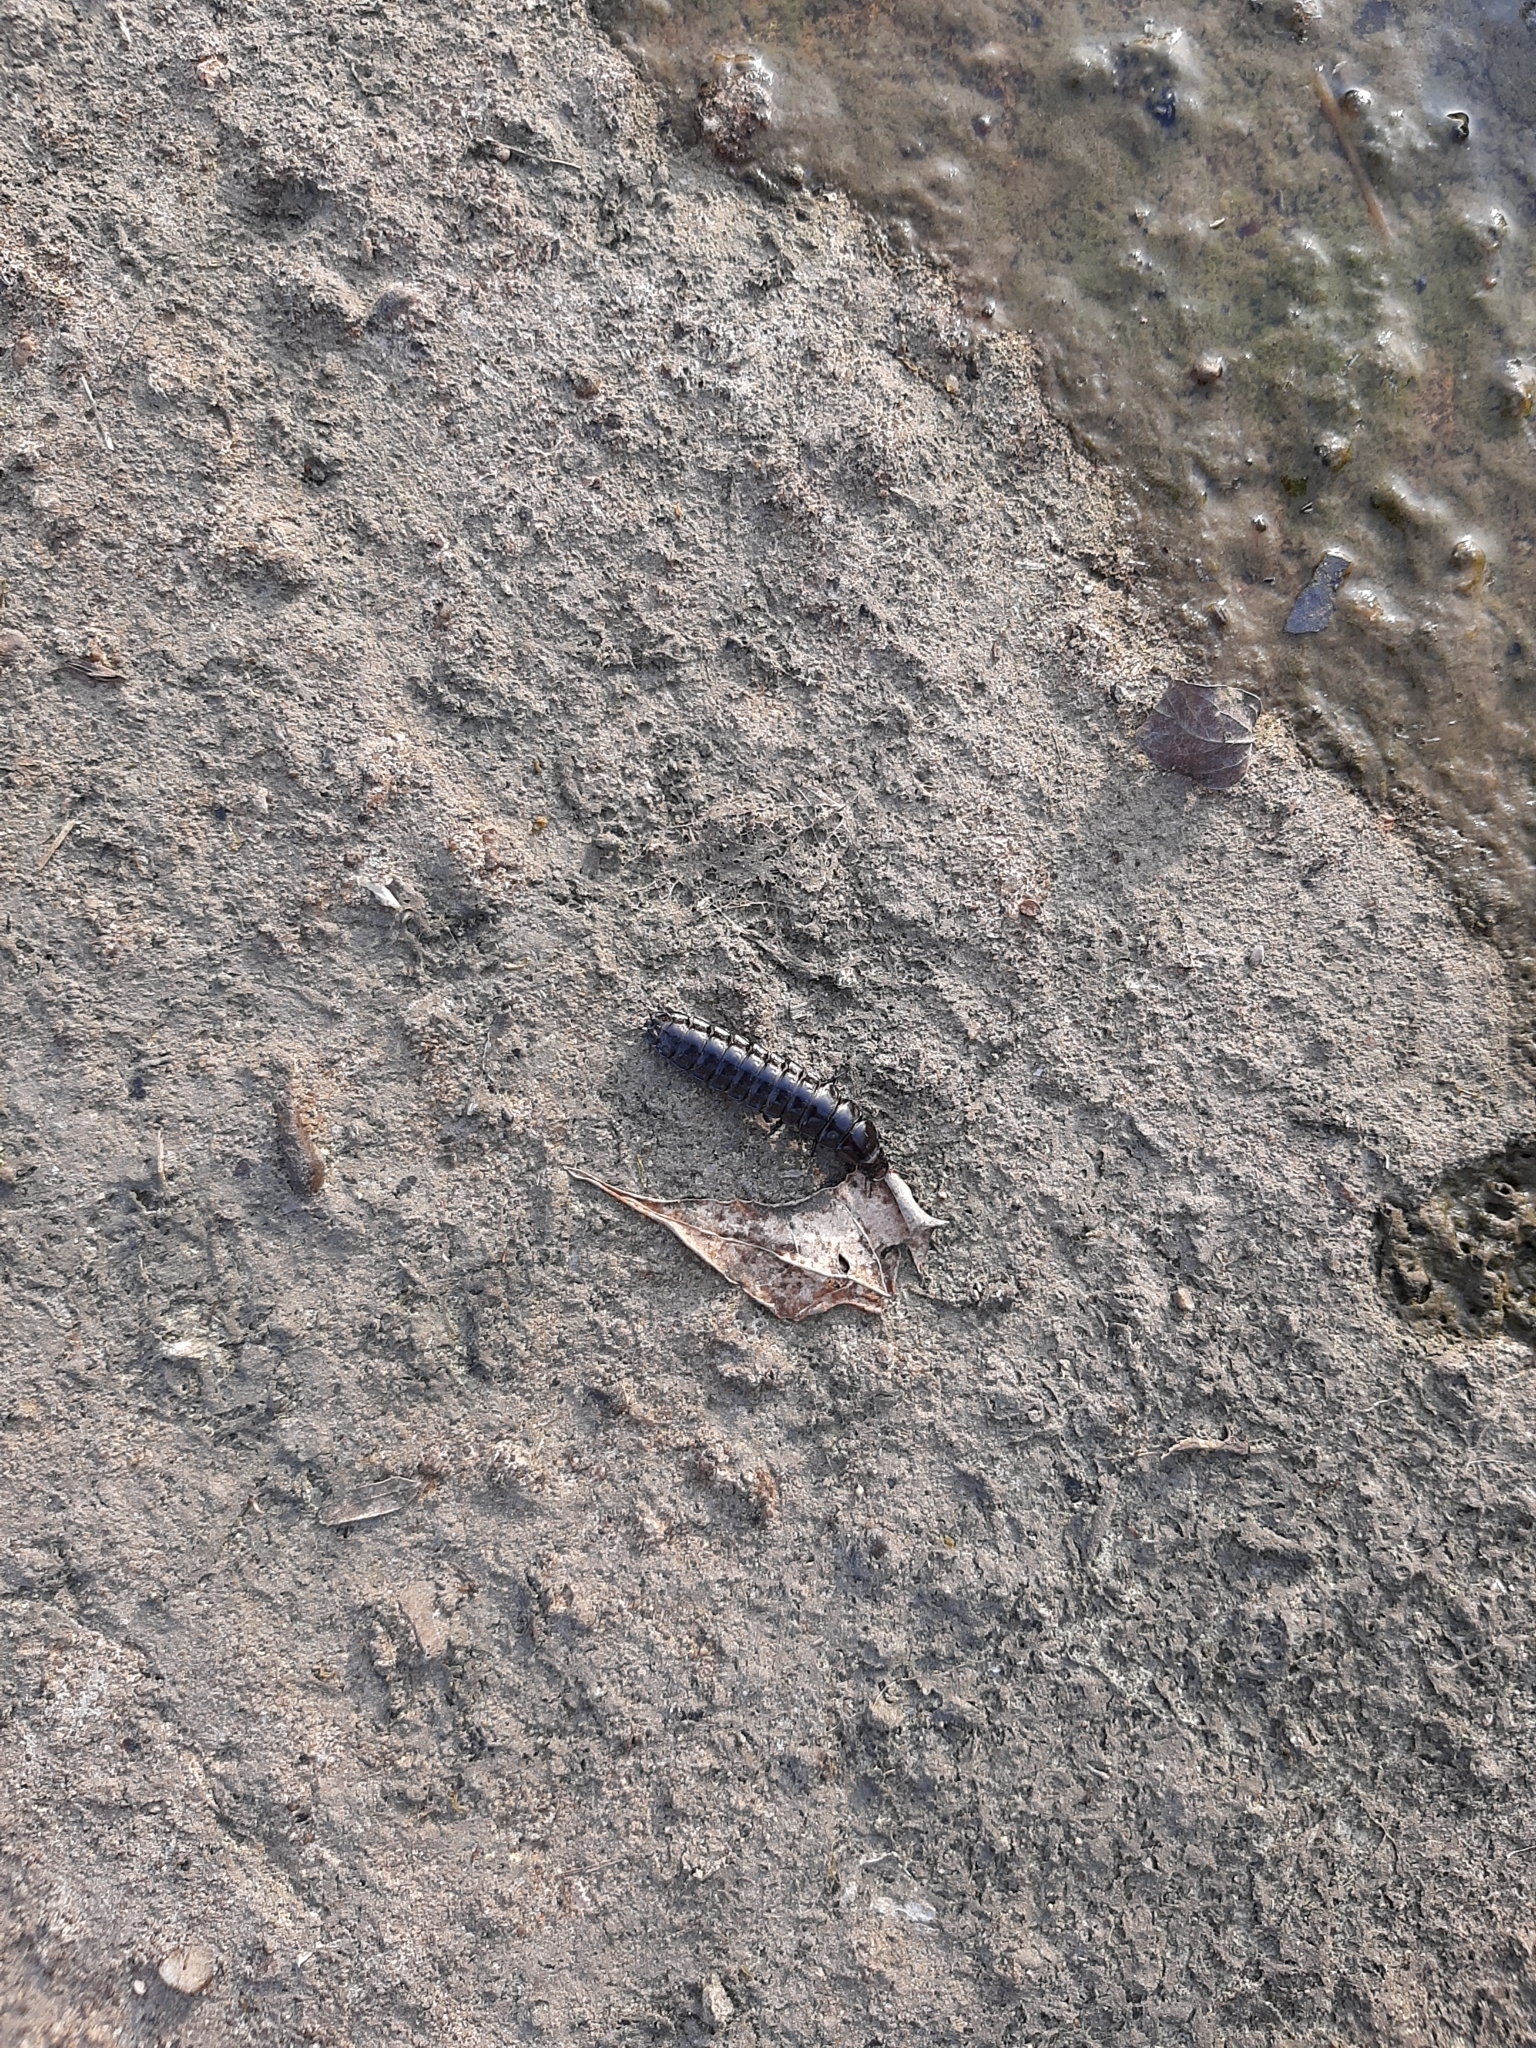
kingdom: Animalia
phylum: Arthropoda
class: Insecta
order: Coleoptera
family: Carabidae
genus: Carabus
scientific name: Carabus
